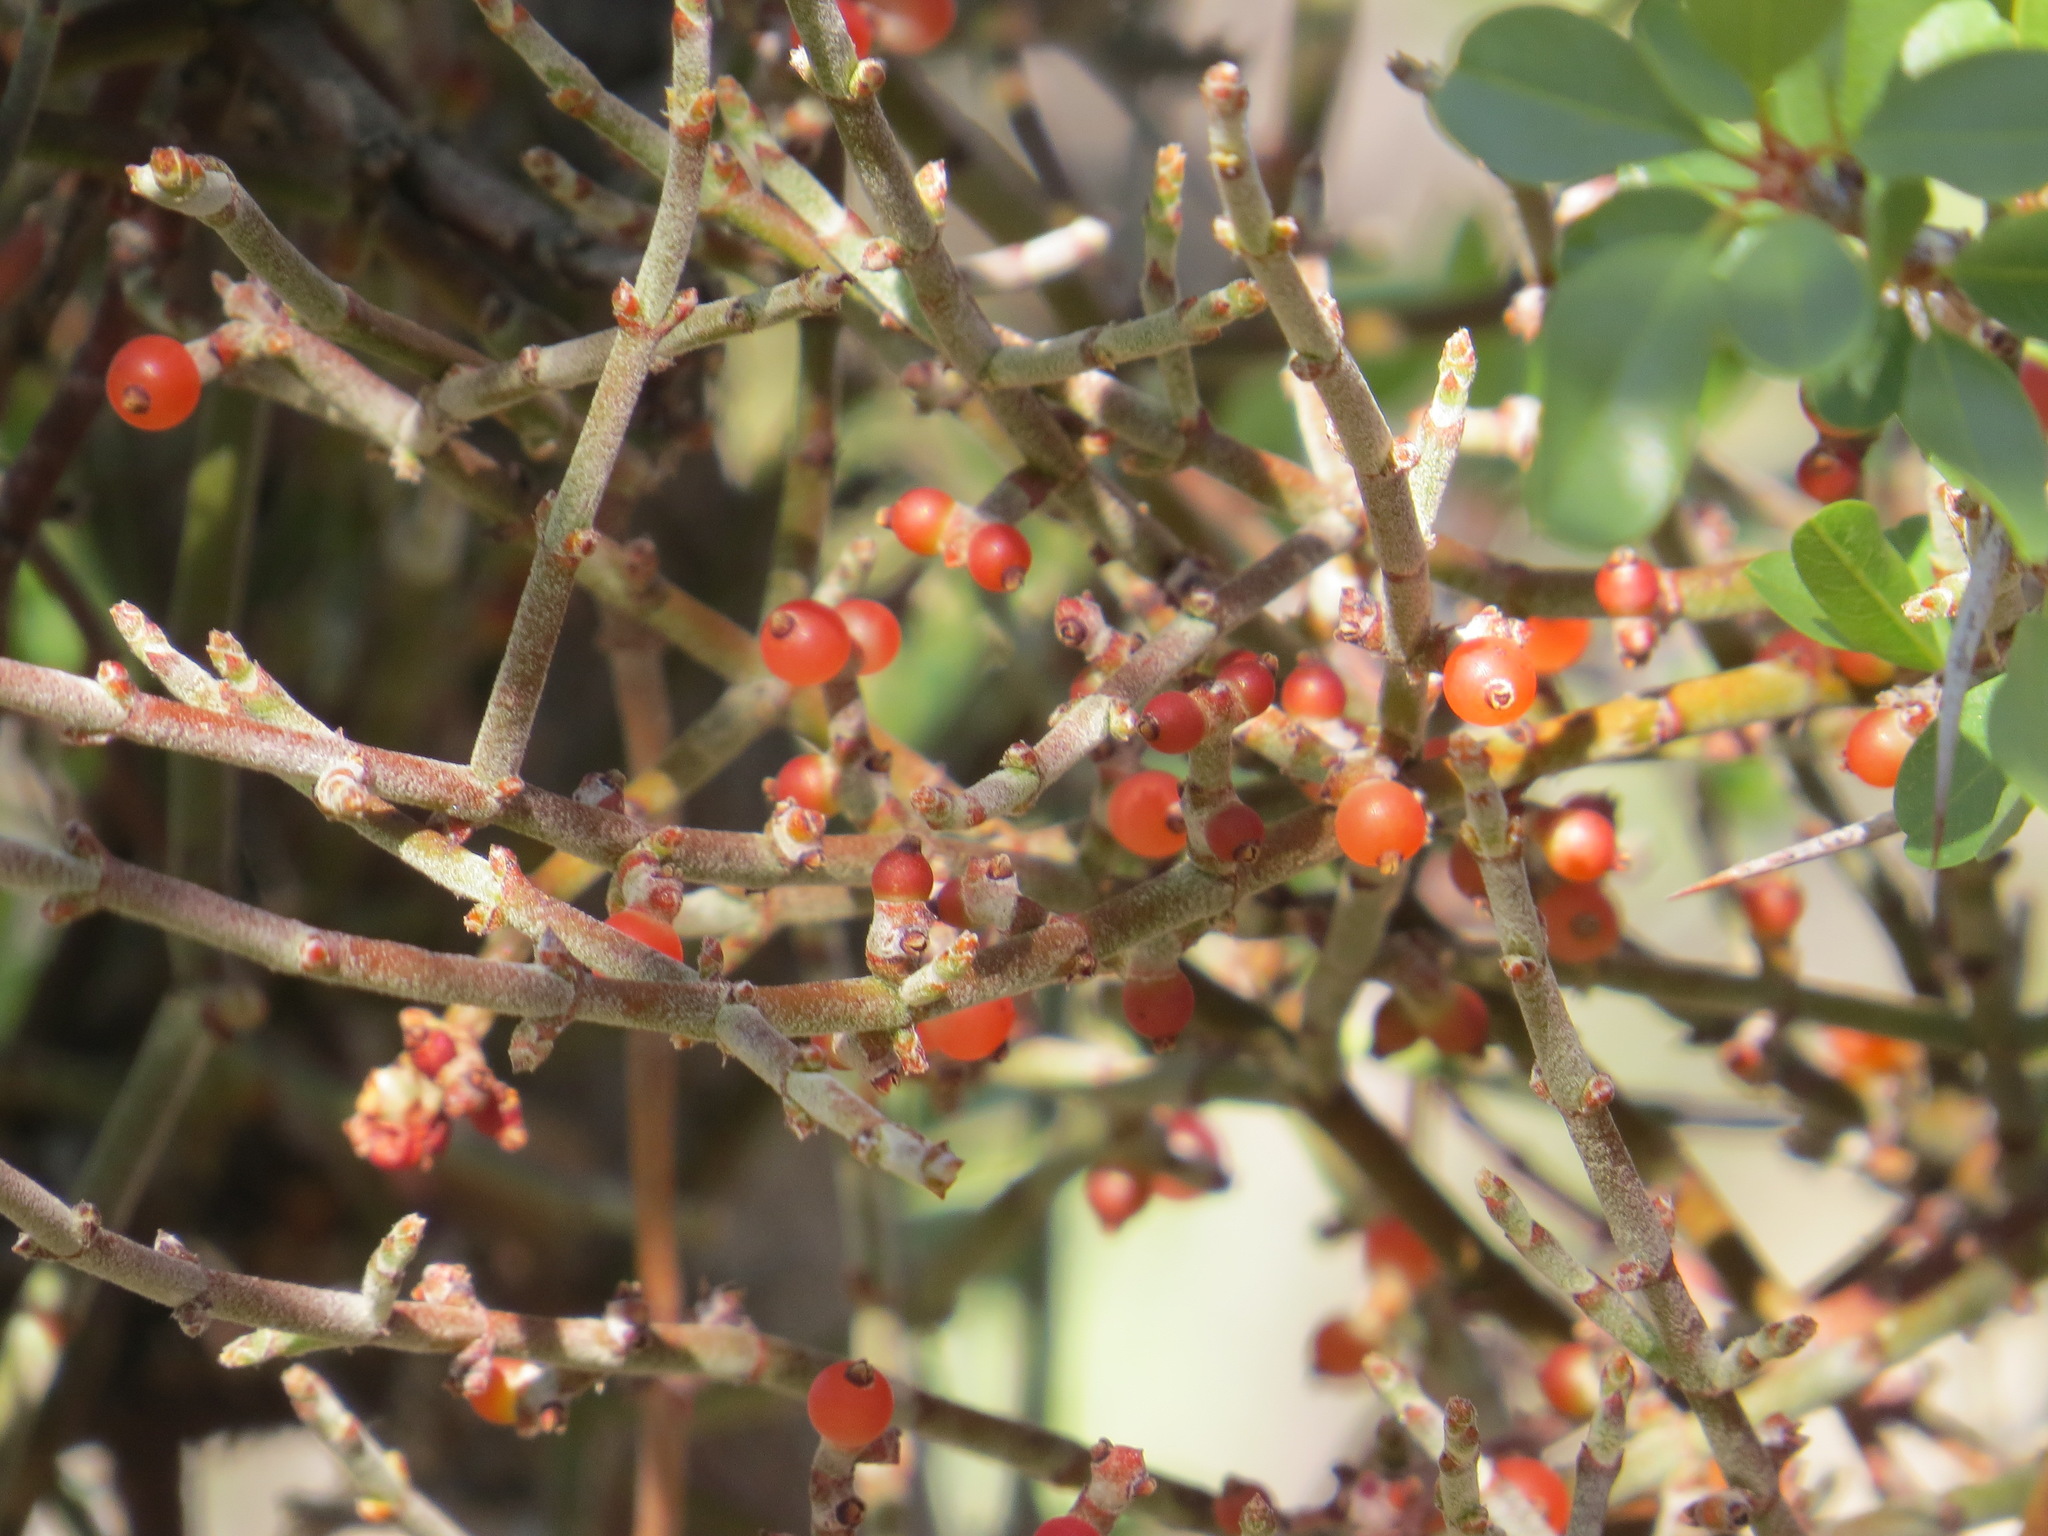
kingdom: Plantae
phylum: Tracheophyta
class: Magnoliopsida
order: Santalales
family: Viscaceae
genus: Phoradendron
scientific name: Phoradendron californicum
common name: Acacia mistletoe
